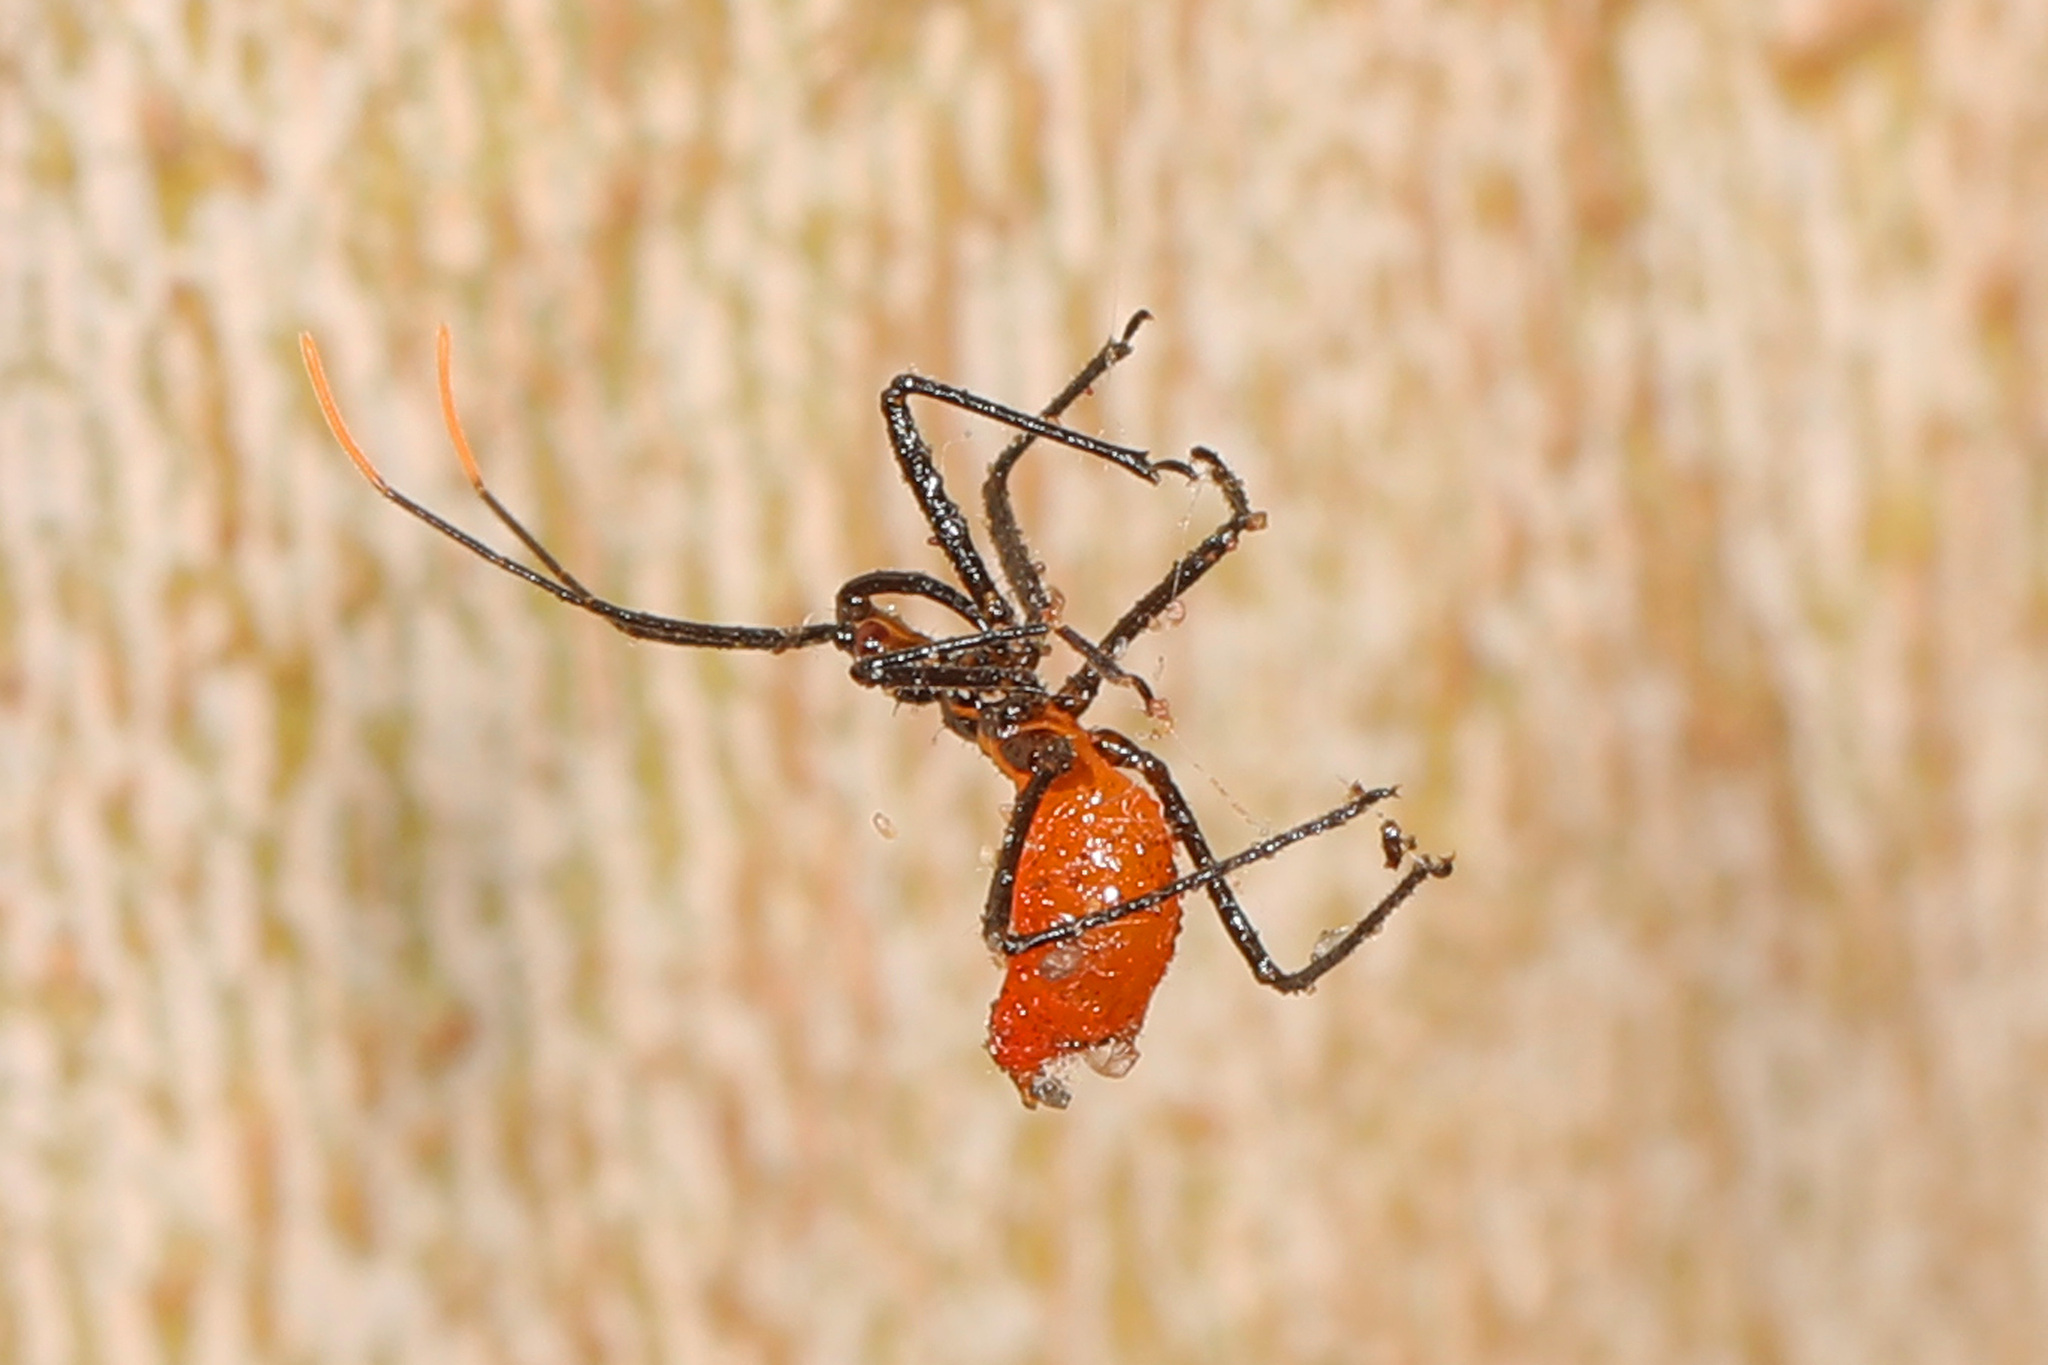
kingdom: Animalia
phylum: Arthropoda
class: Insecta
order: Hemiptera
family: Reduviidae
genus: Arilus
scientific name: Arilus cristatus
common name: North american wheel bug
